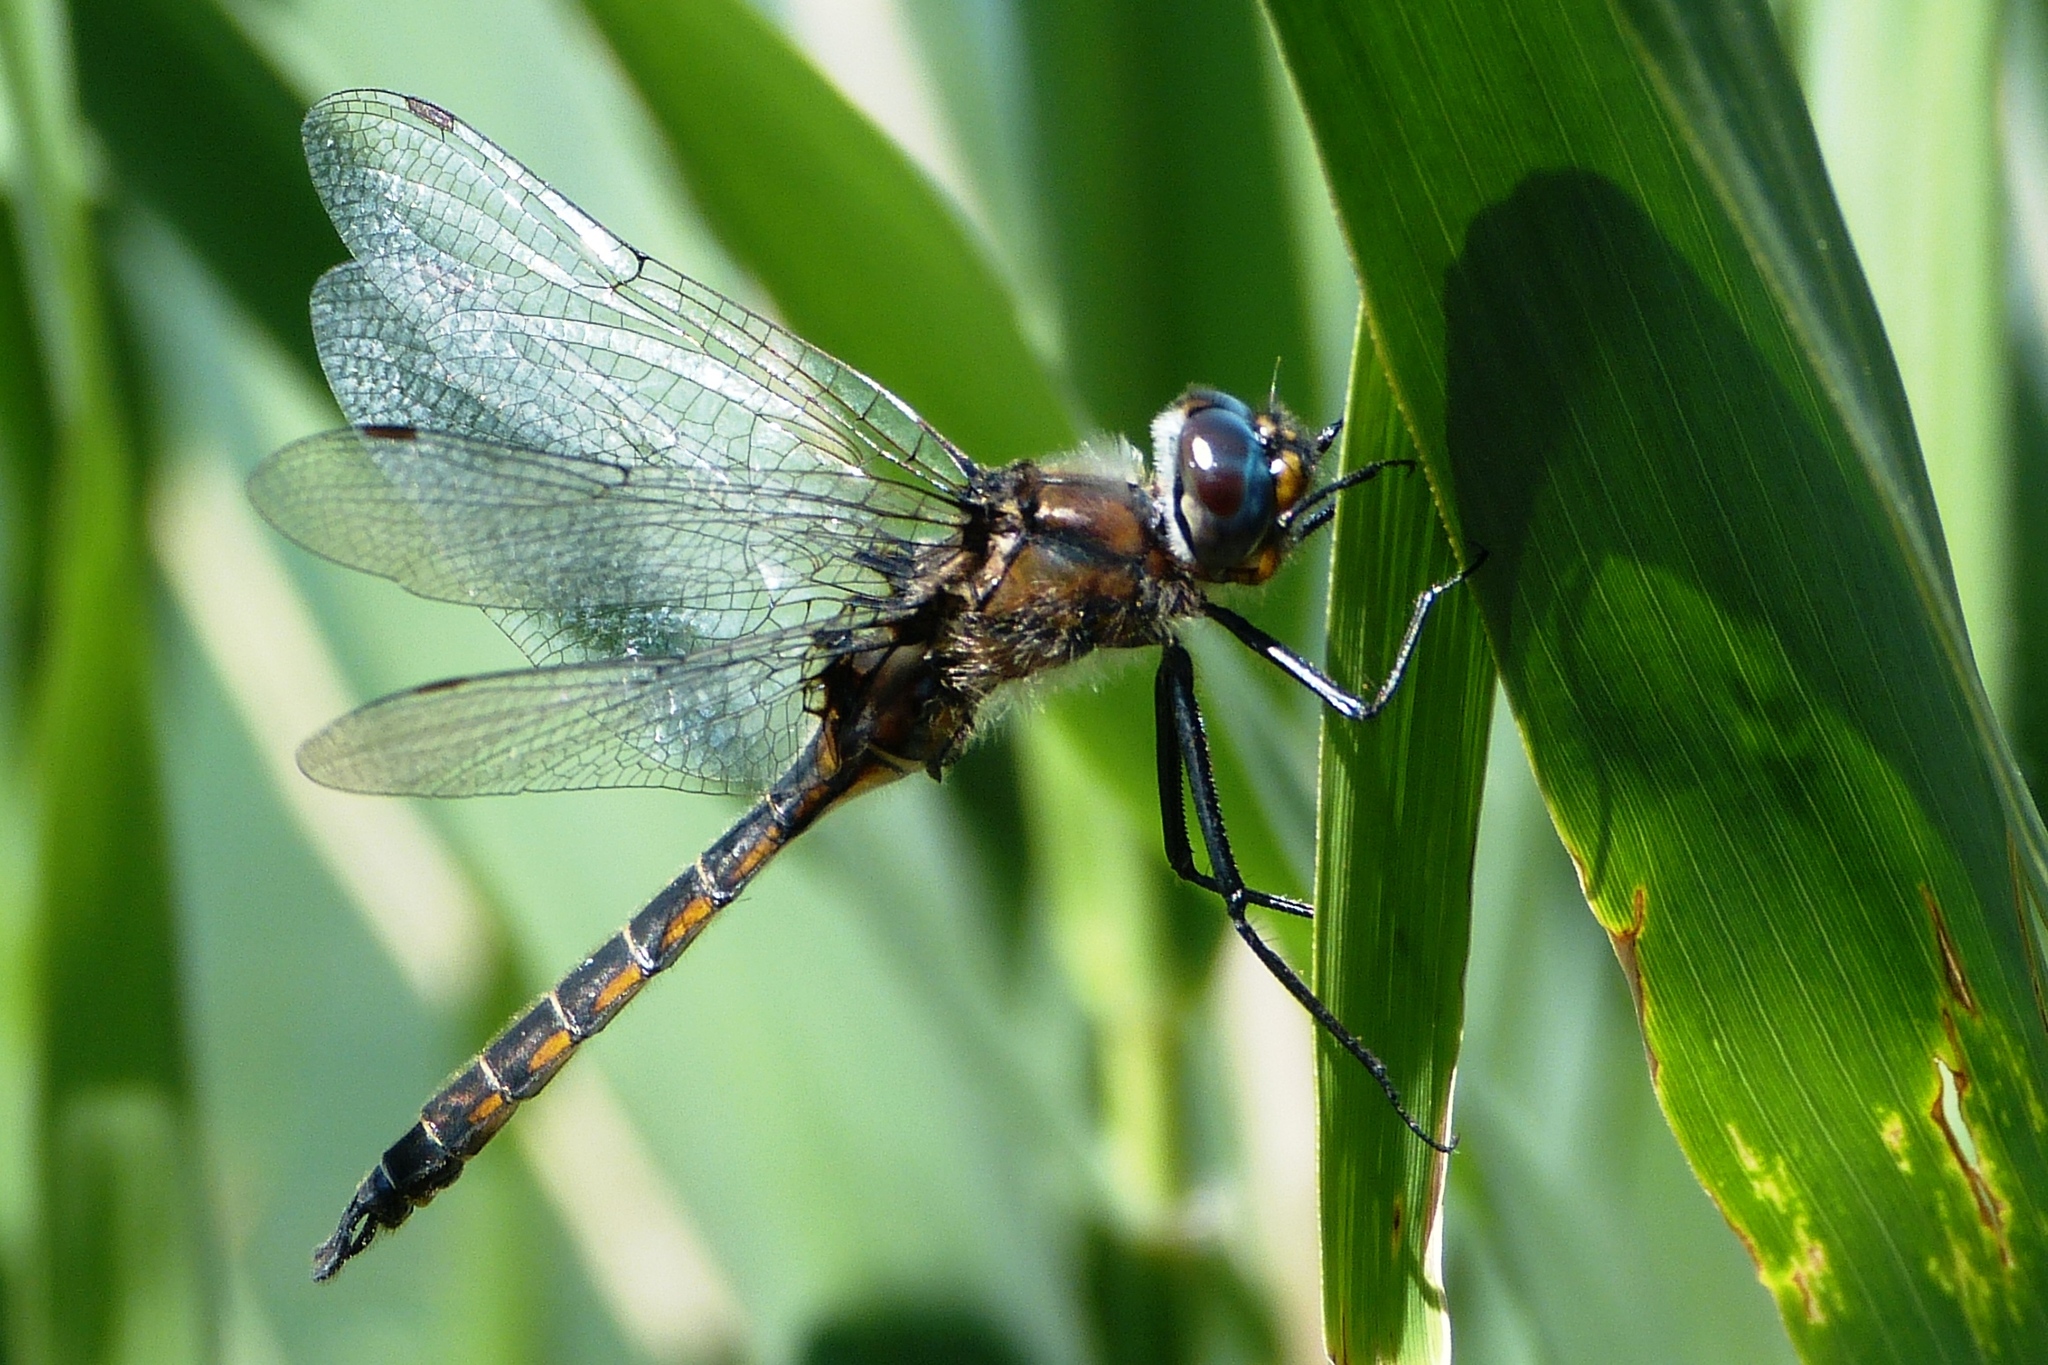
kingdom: Animalia
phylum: Arthropoda
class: Insecta
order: Odonata
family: Corduliidae
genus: Epitheca
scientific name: Epitheca spinigera
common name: Spiny baskettail
